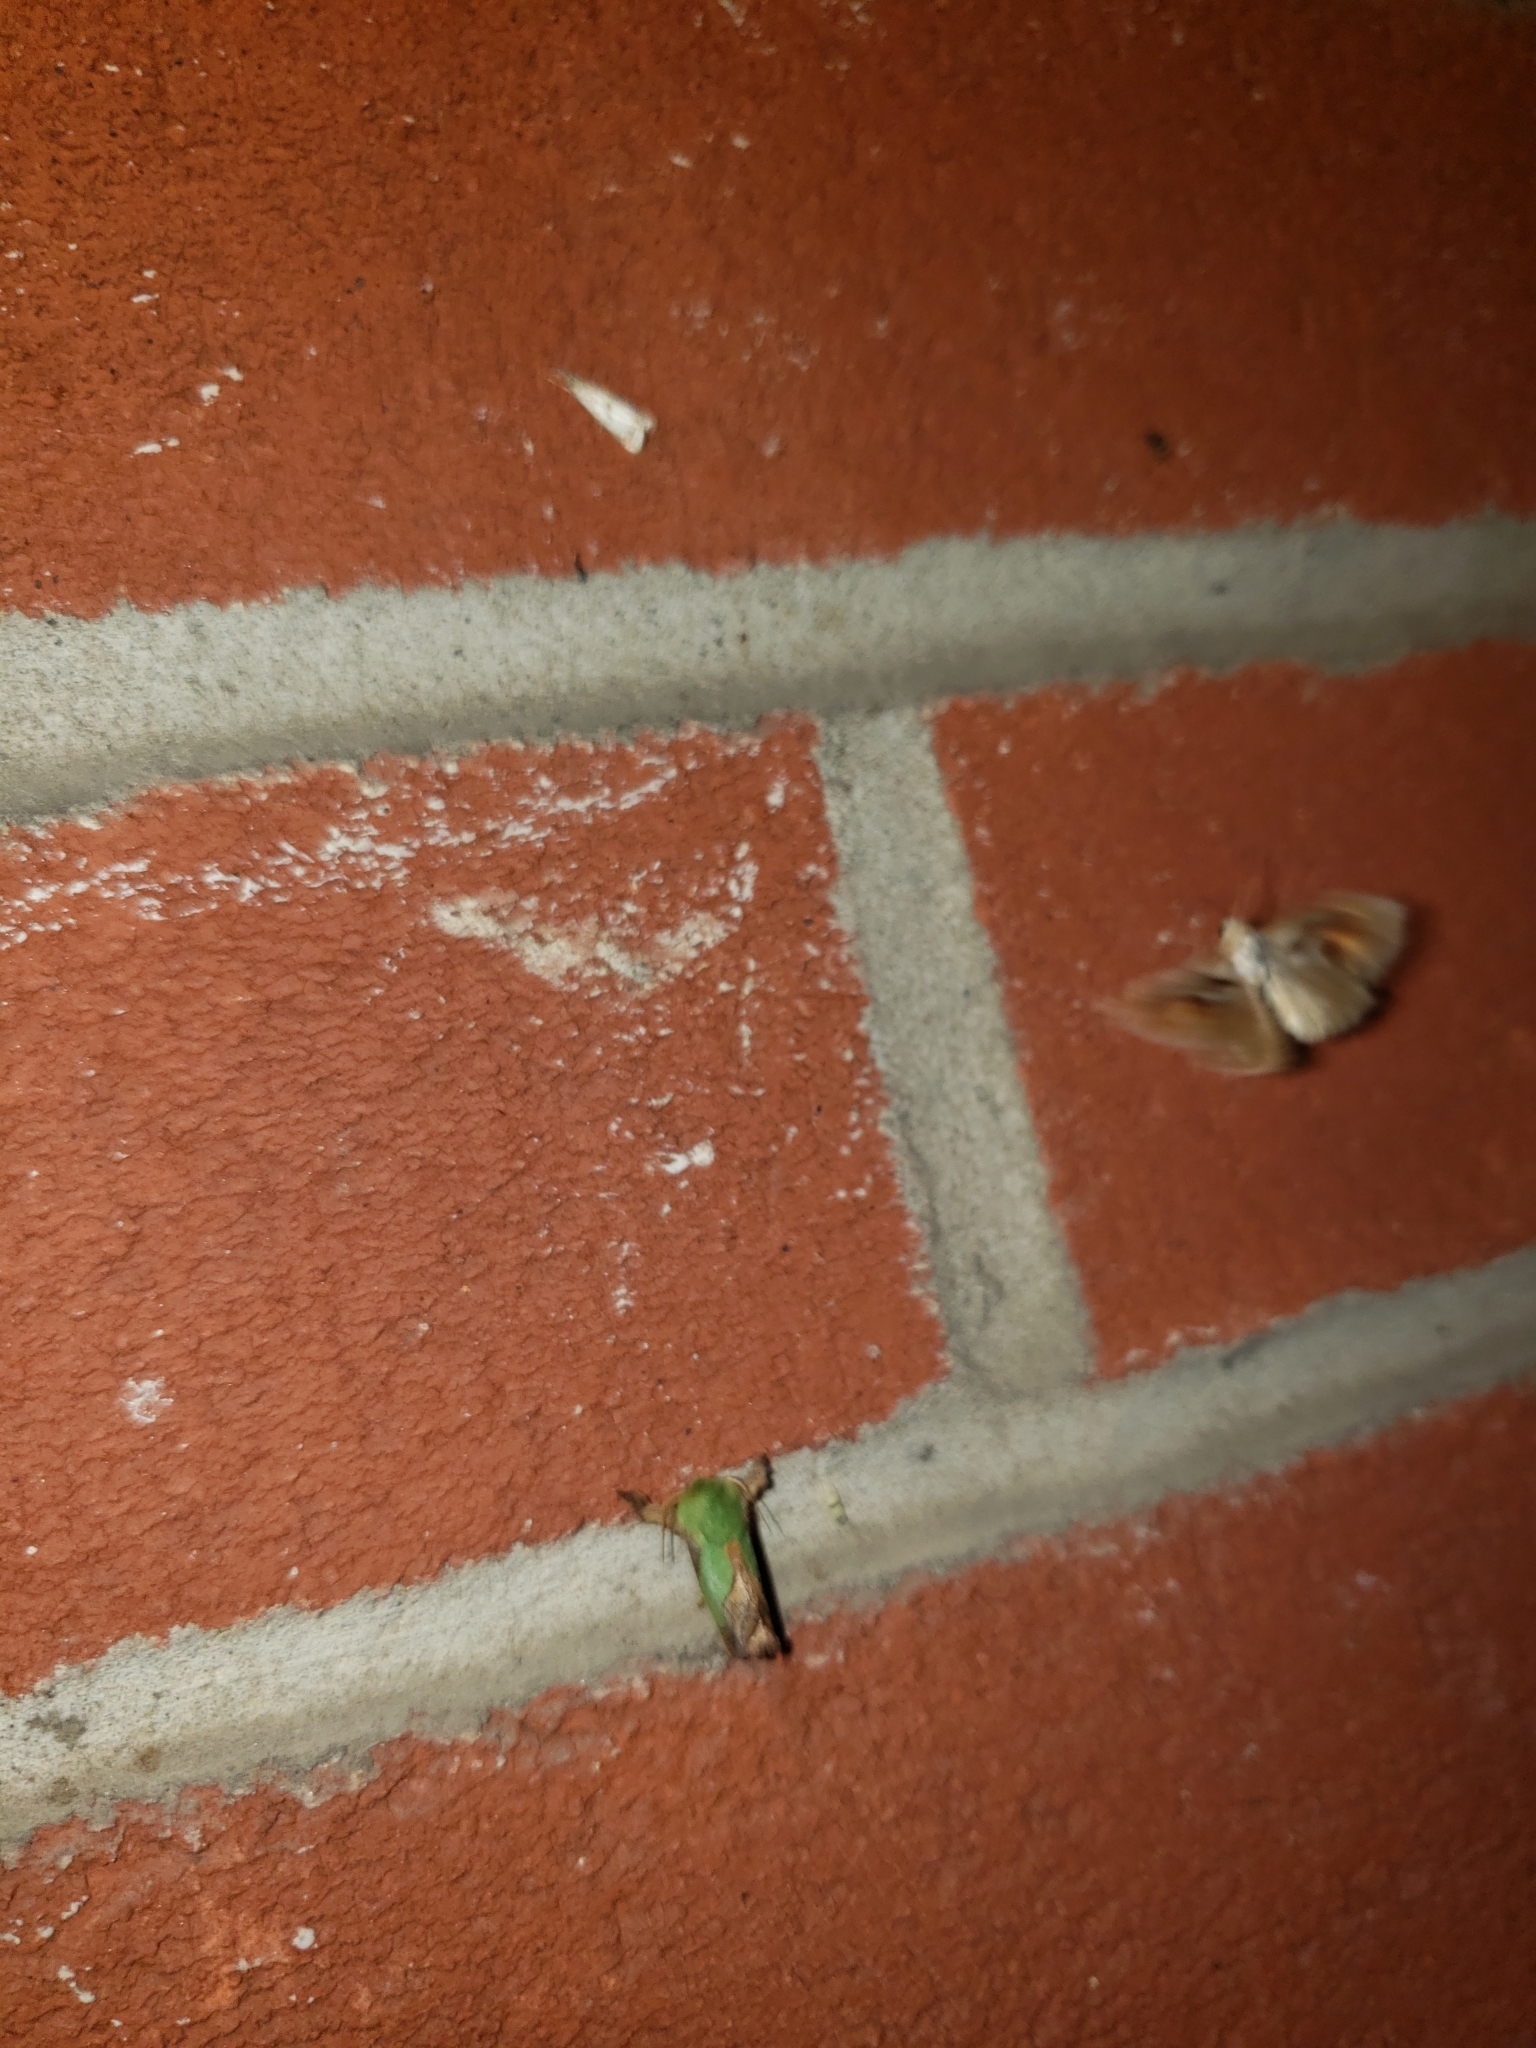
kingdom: Animalia
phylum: Arthropoda
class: Insecta
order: Lepidoptera
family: Noctuidae
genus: Acontia
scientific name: Acontia Tarache terminimaculata
